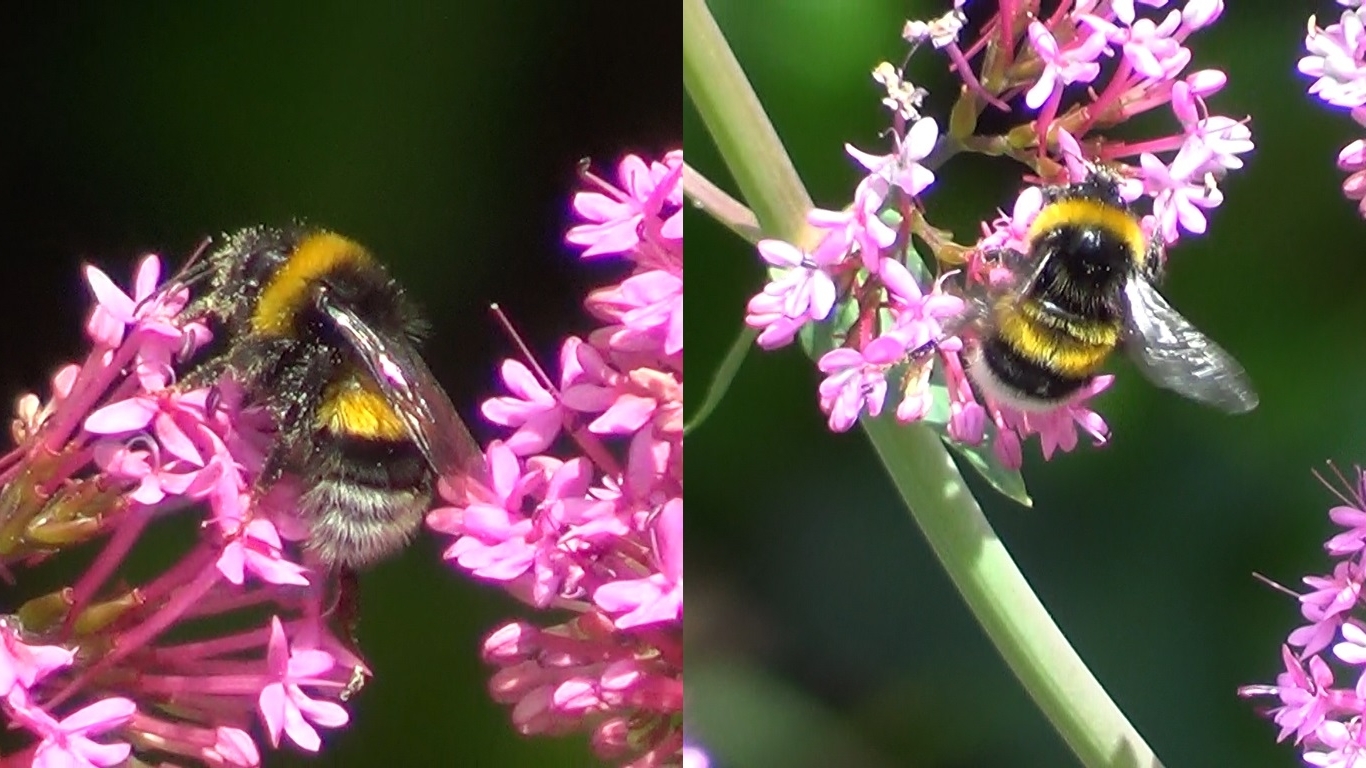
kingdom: Animalia
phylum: Arthropoda
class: Insecta
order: Hymenoptera
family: Apidae
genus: Bombus
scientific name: Bombus terrestris
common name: Buff-tailed bumblebee
